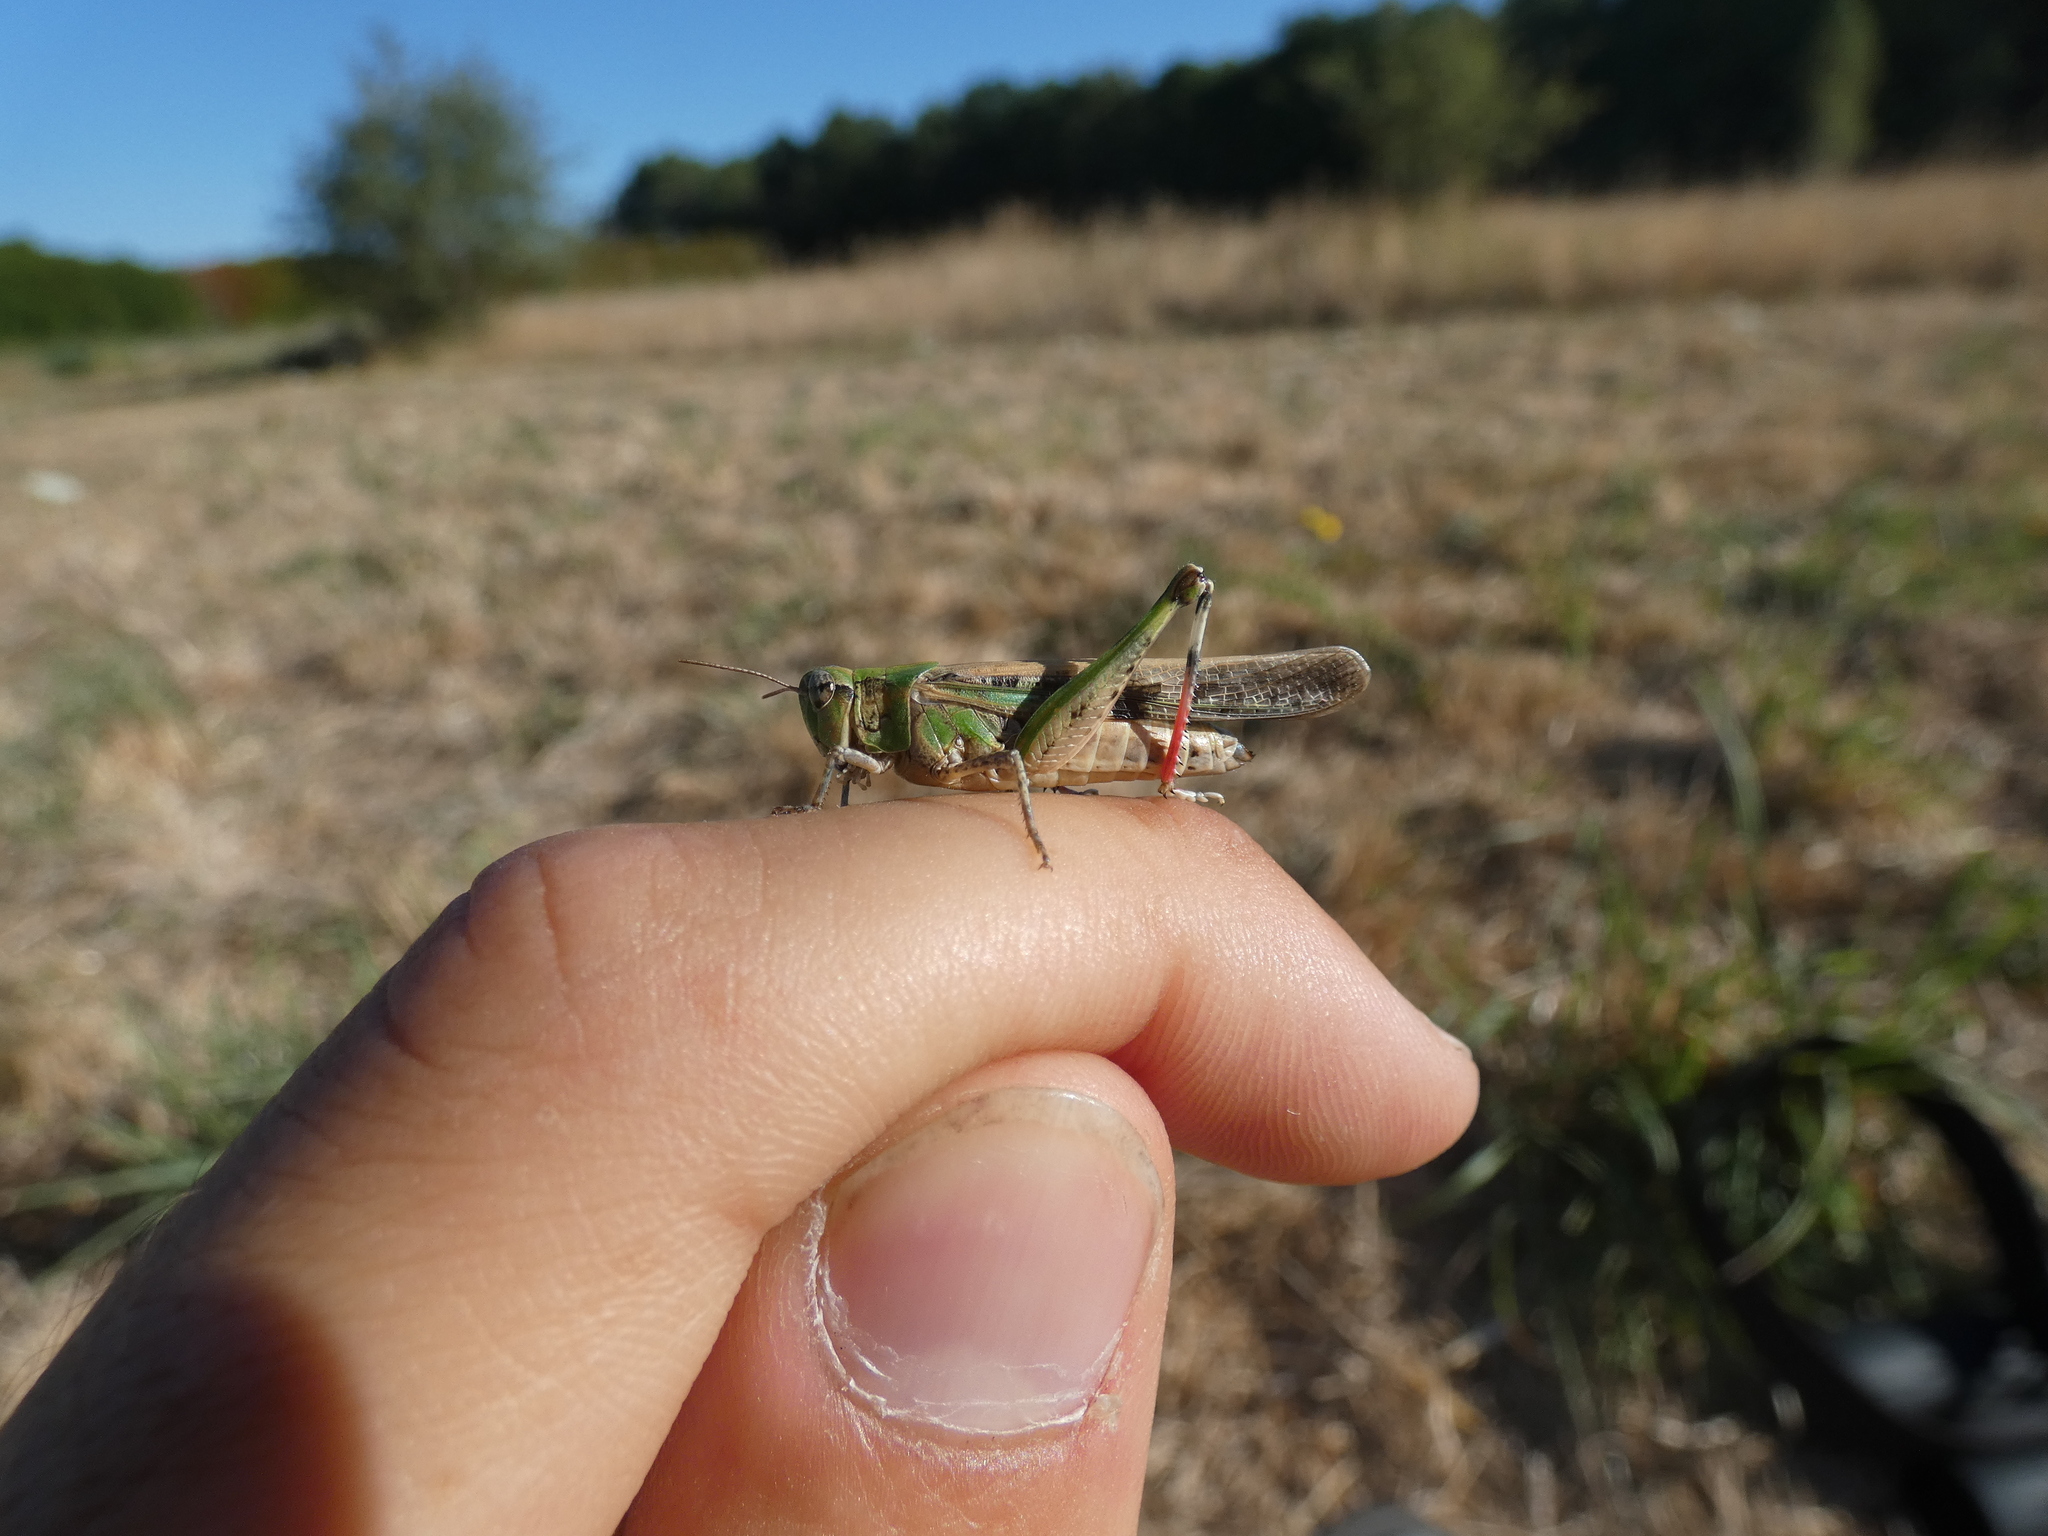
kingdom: Animalia
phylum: Arthropoda
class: Insecta
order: Orthoptera
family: Acrididae
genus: Aiolopus
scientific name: Aiolopus thalassinus
